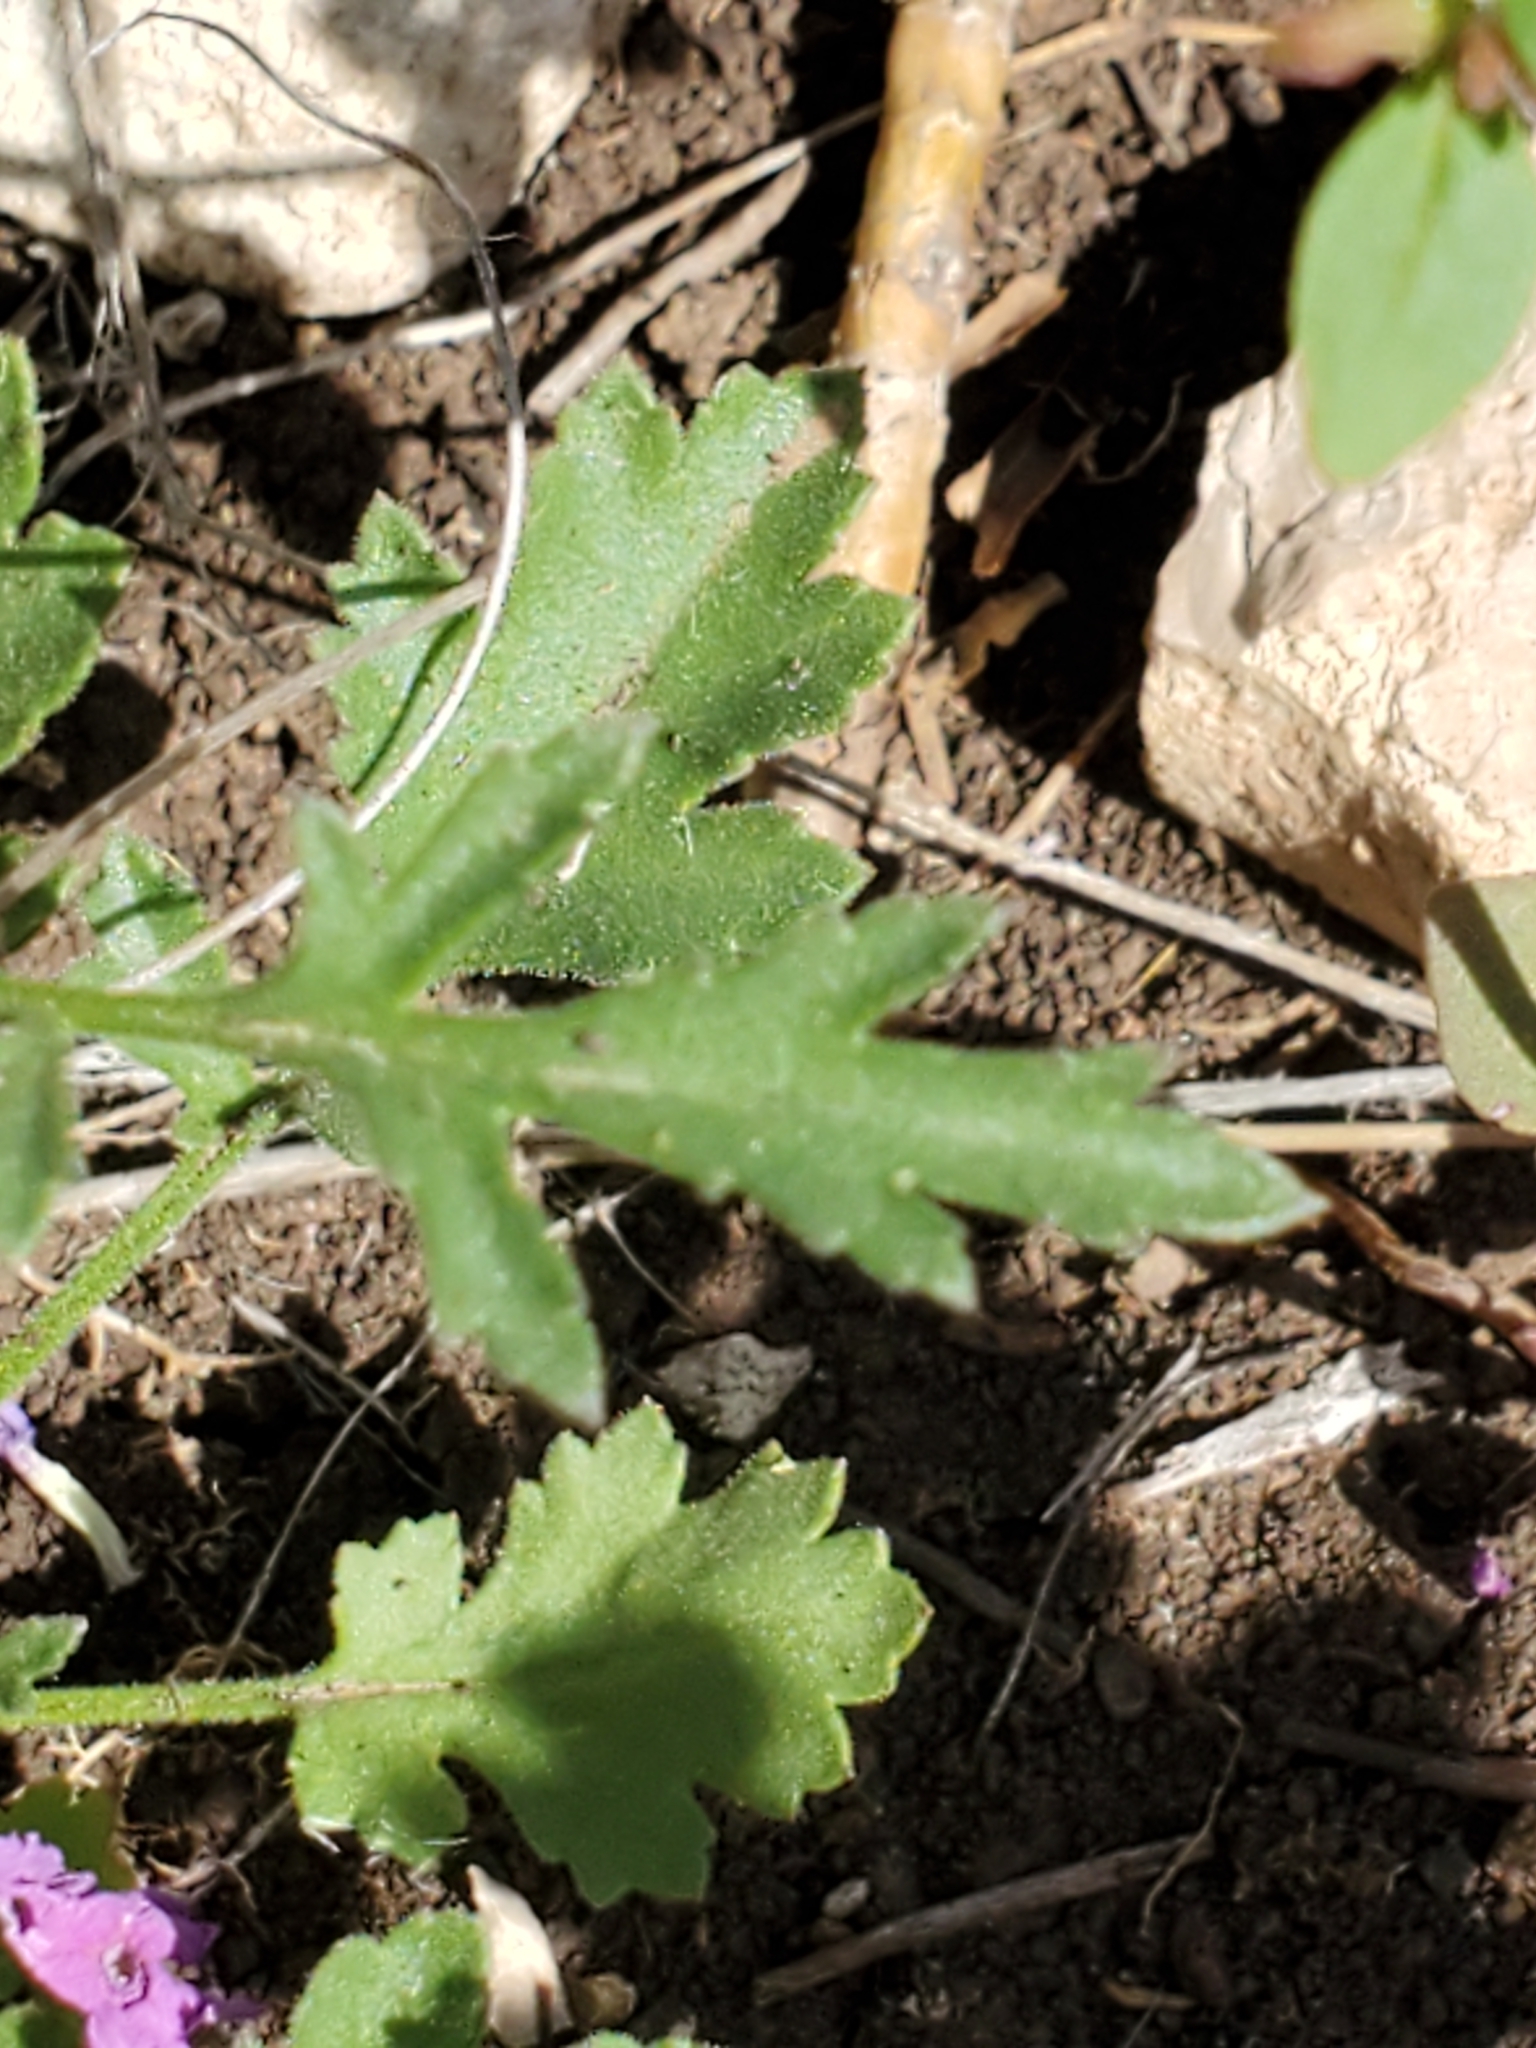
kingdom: Plantae
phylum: Tracheophyta
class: Magnoliopsida
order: Ericales
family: Polemoniaceae
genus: Giliastrum
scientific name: Giliastrum incisum
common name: Splitleaf gilia
